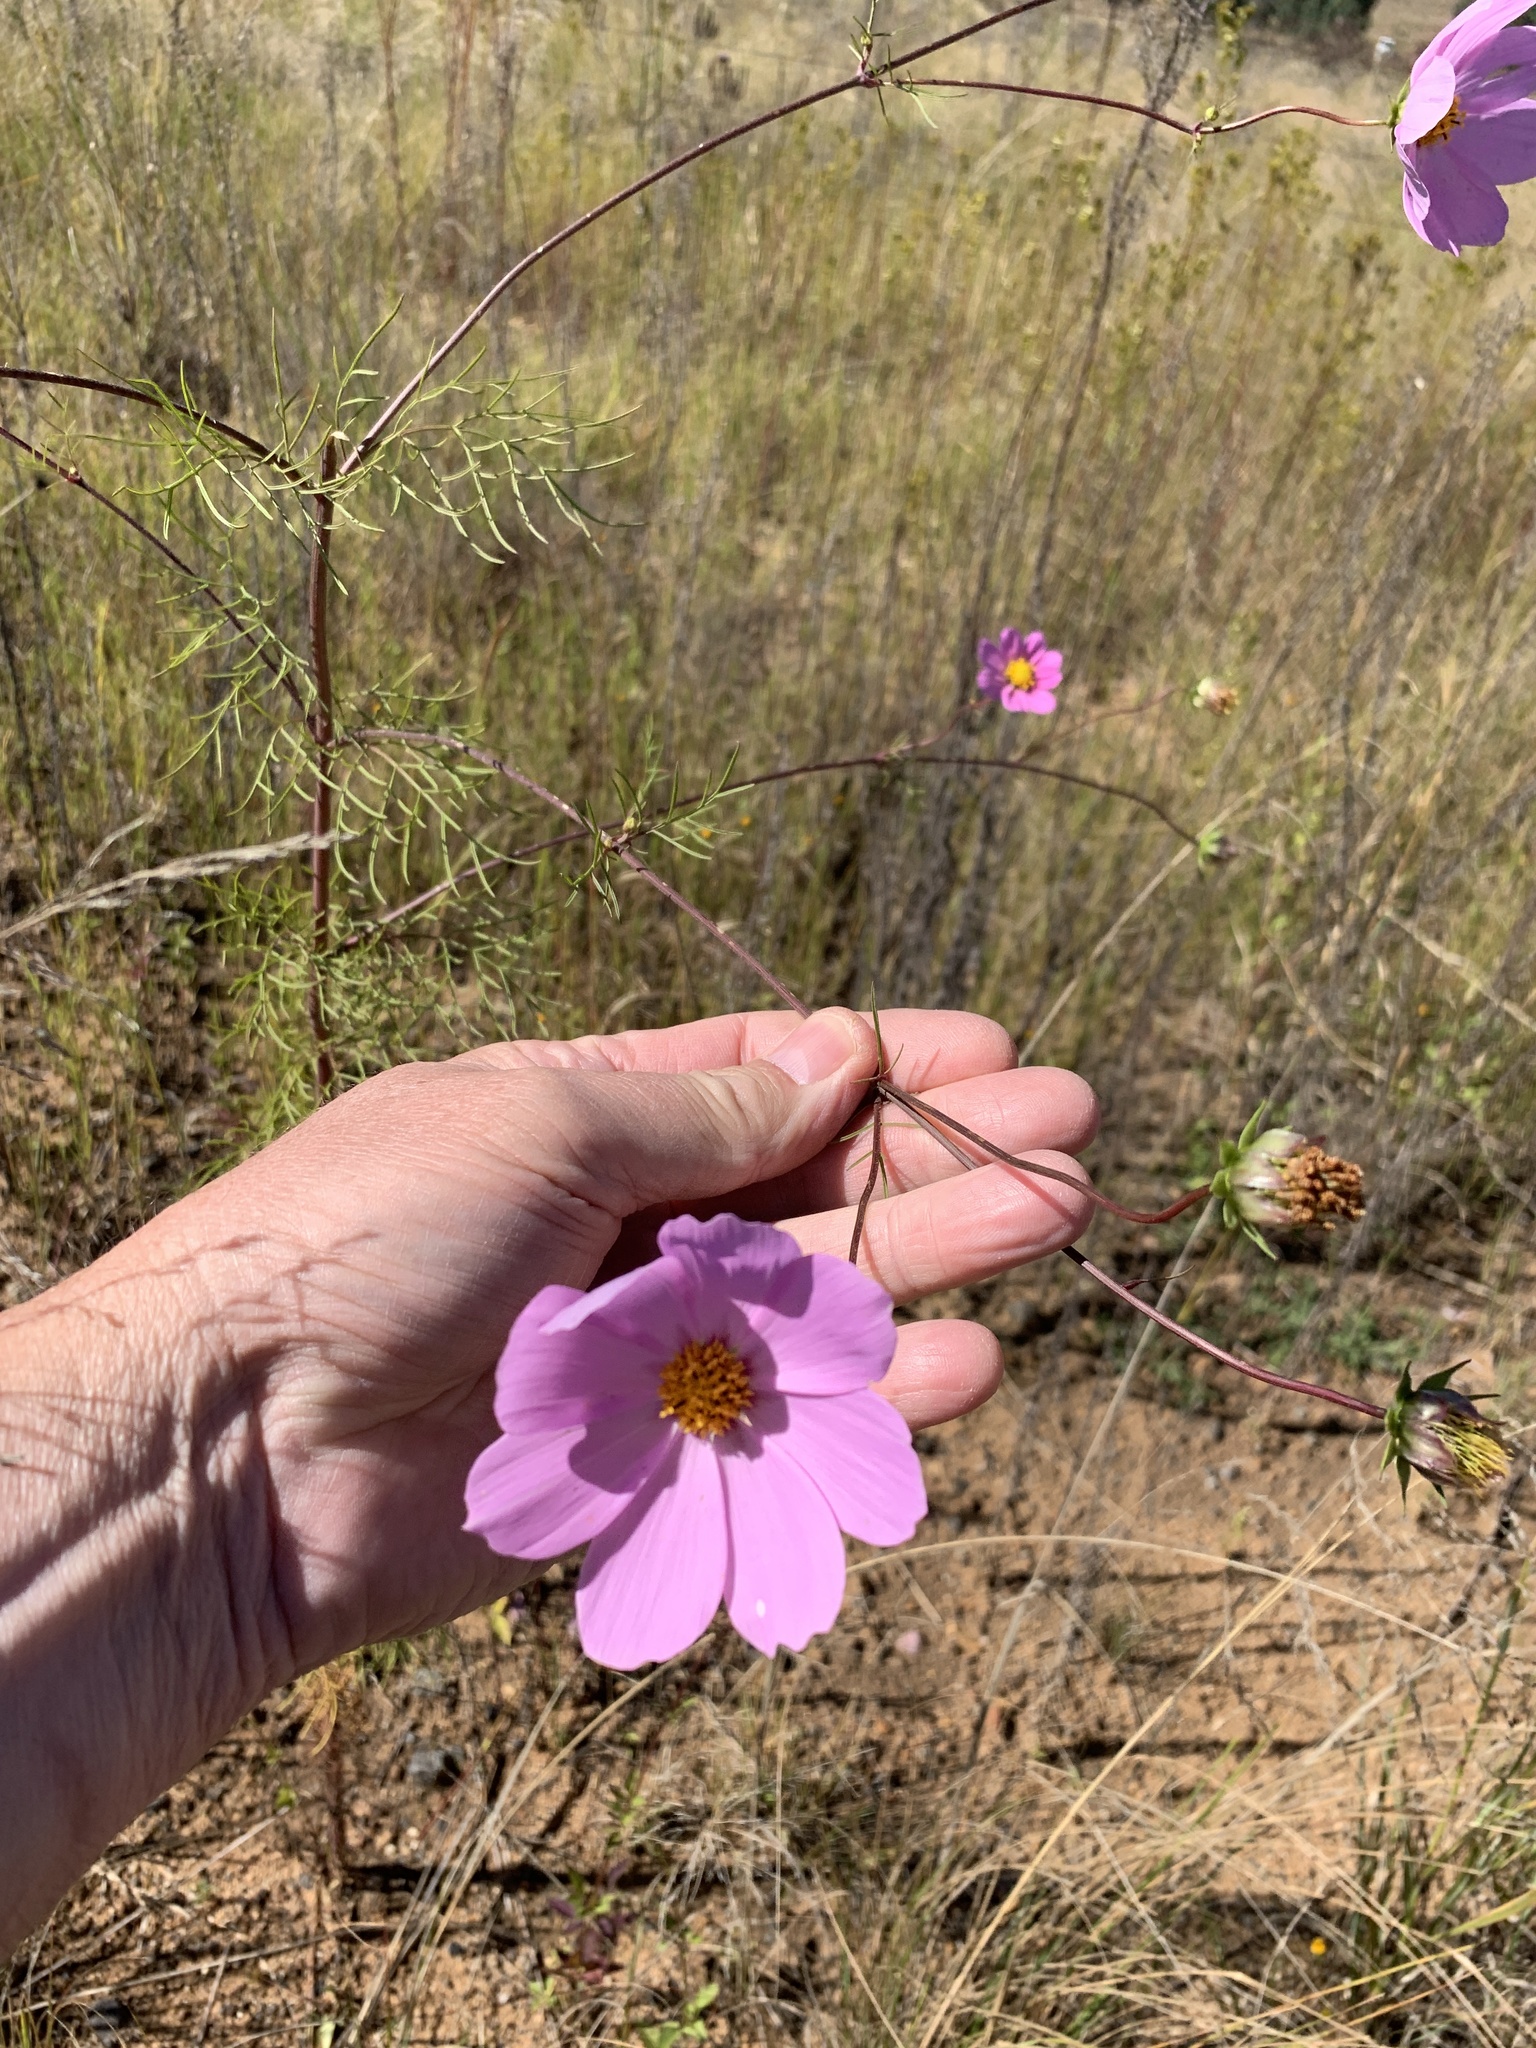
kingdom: Plantae
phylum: Tracheophyta
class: Magnoliopsida
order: Asterales
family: Asteraceae
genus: Cosmos
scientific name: Cosmos bipinnatus
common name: Garden cosmos
